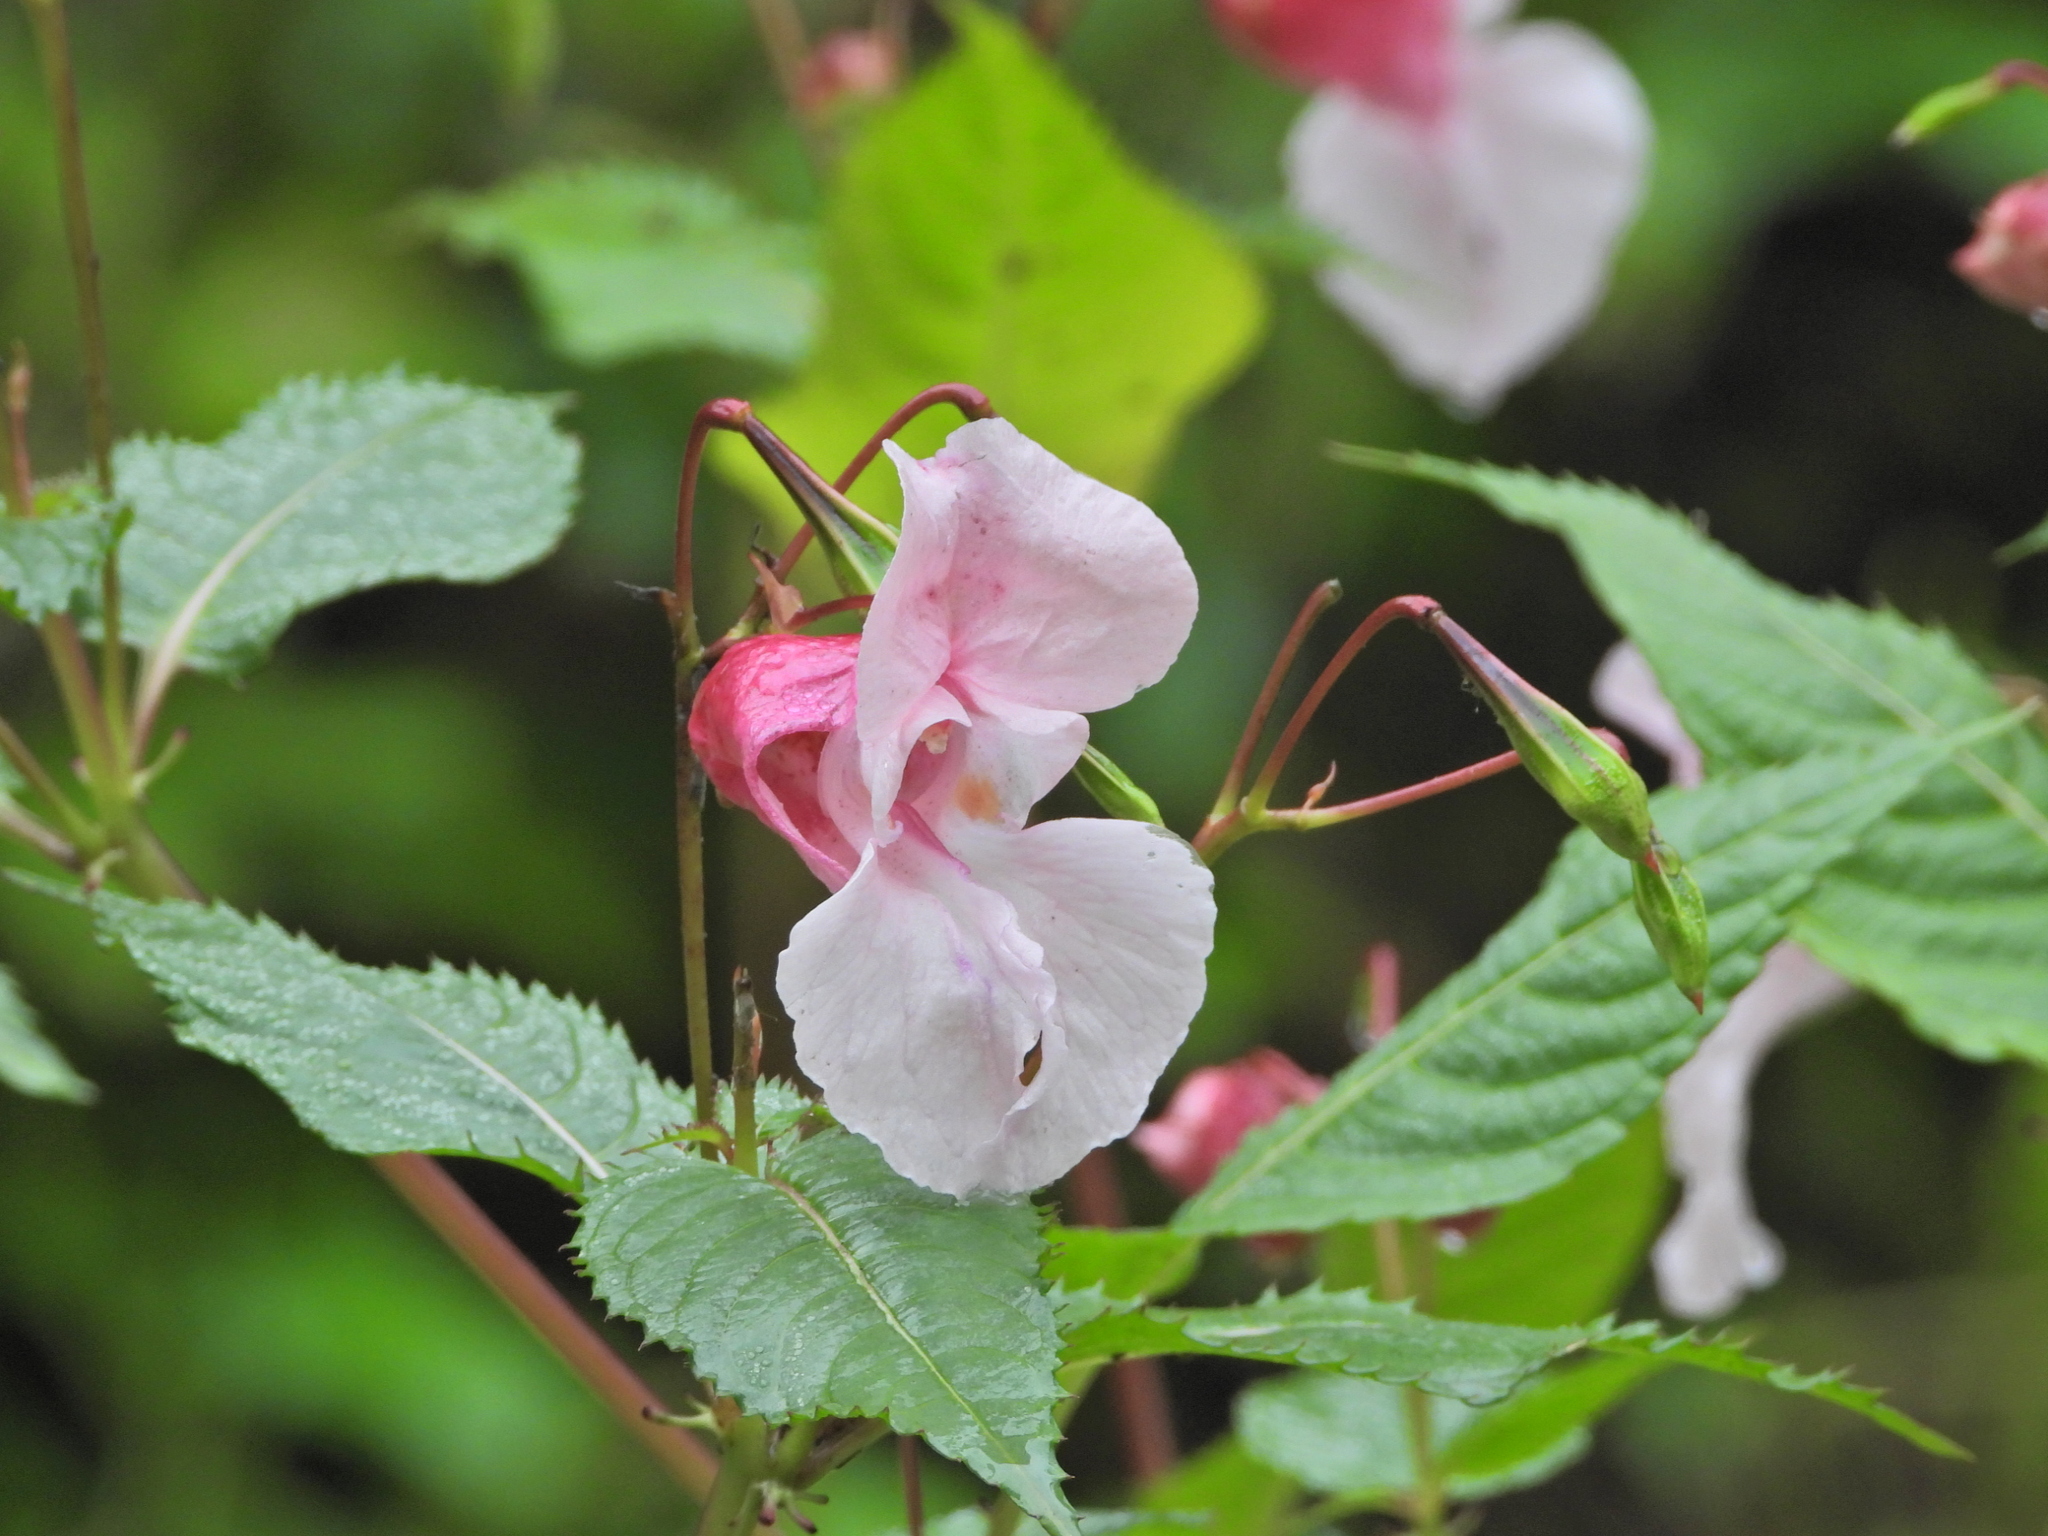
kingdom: Plantae
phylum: Tracheophyta
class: Magnoliopsida
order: Ericales
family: Balsaminaceae
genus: Impatiens
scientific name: Impatiens glandulifera
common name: Himalayan balsam
